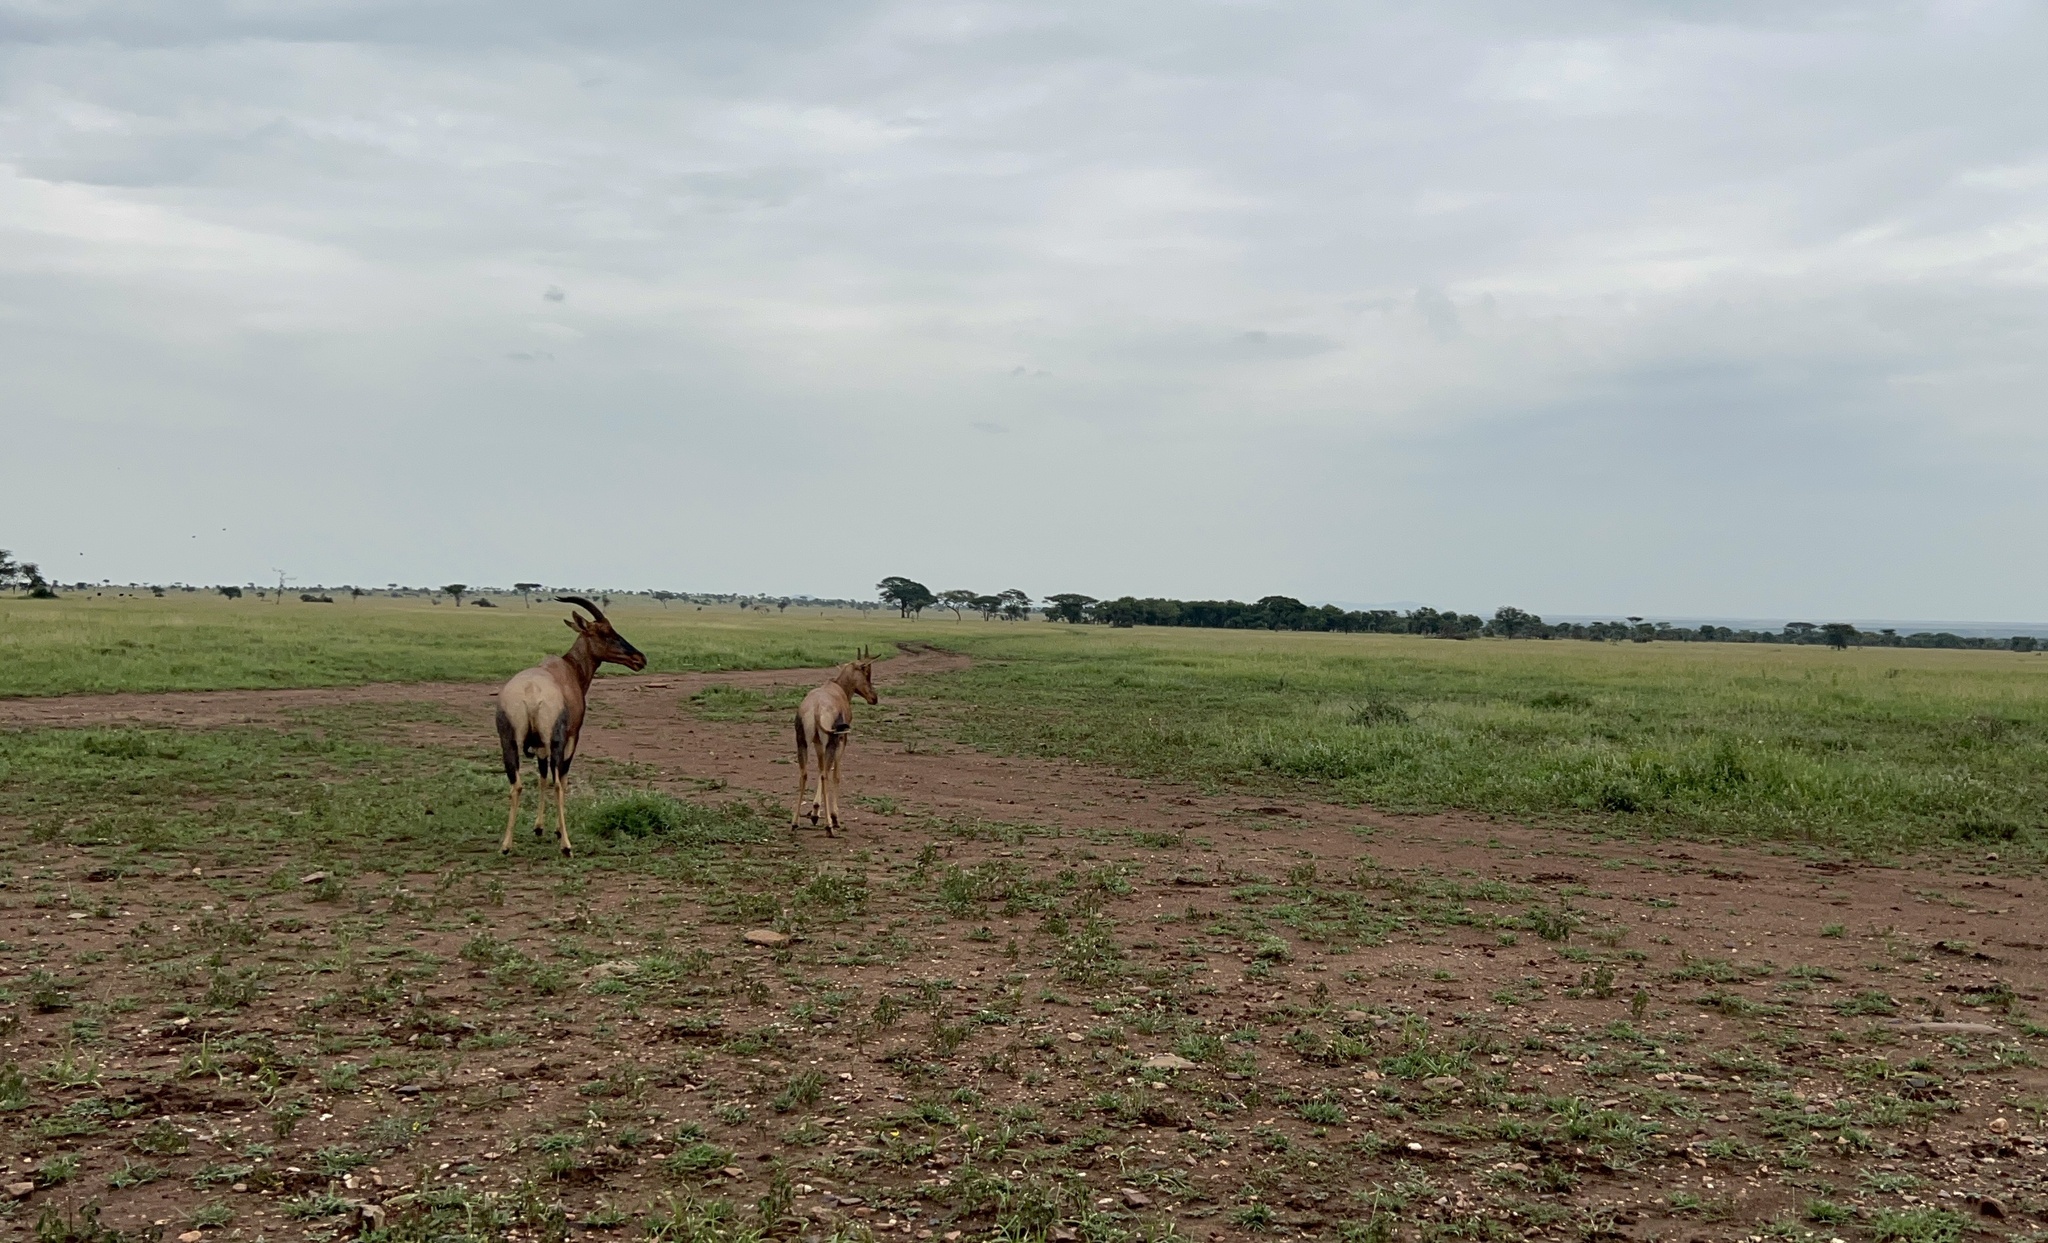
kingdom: Animalia
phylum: Chordata
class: Mammalia
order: Artiodactyla
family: Bovidae
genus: Damaliscus
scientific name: Damaliscus korrigum
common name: Topi
